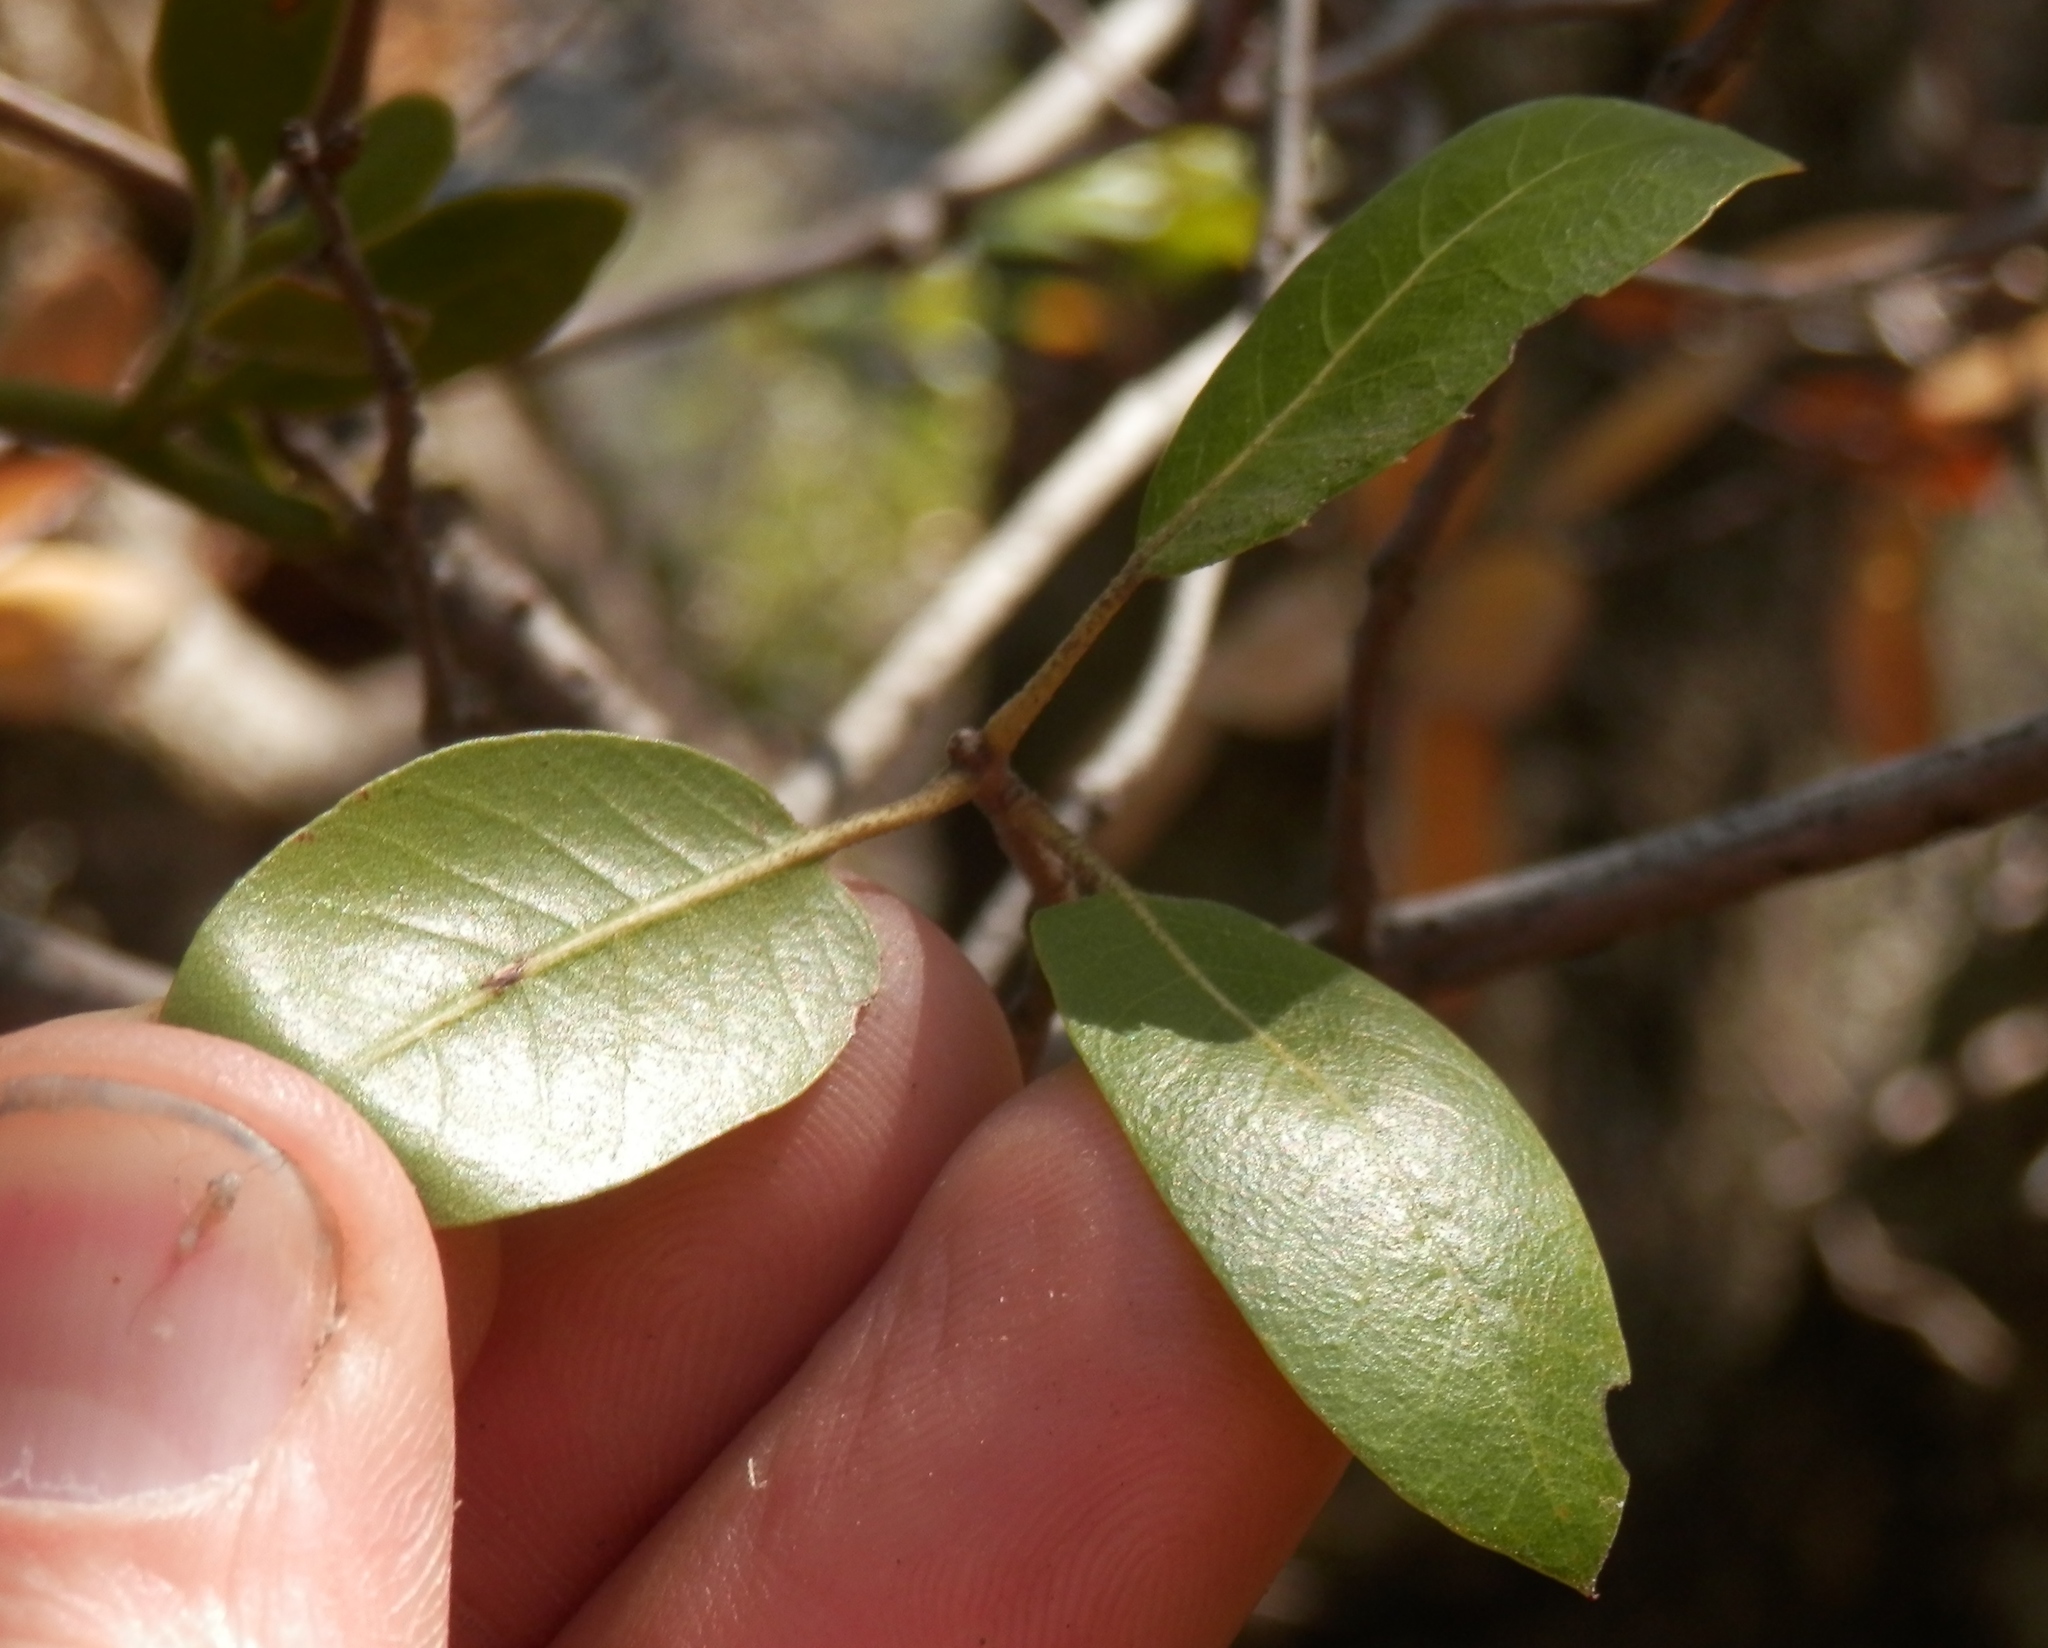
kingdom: Plantae
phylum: Tracheophyta
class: Magnoliopsida
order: Fagales
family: Fagaceae
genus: Quercus
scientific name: Quercus wislizeni
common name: Interior live oak
